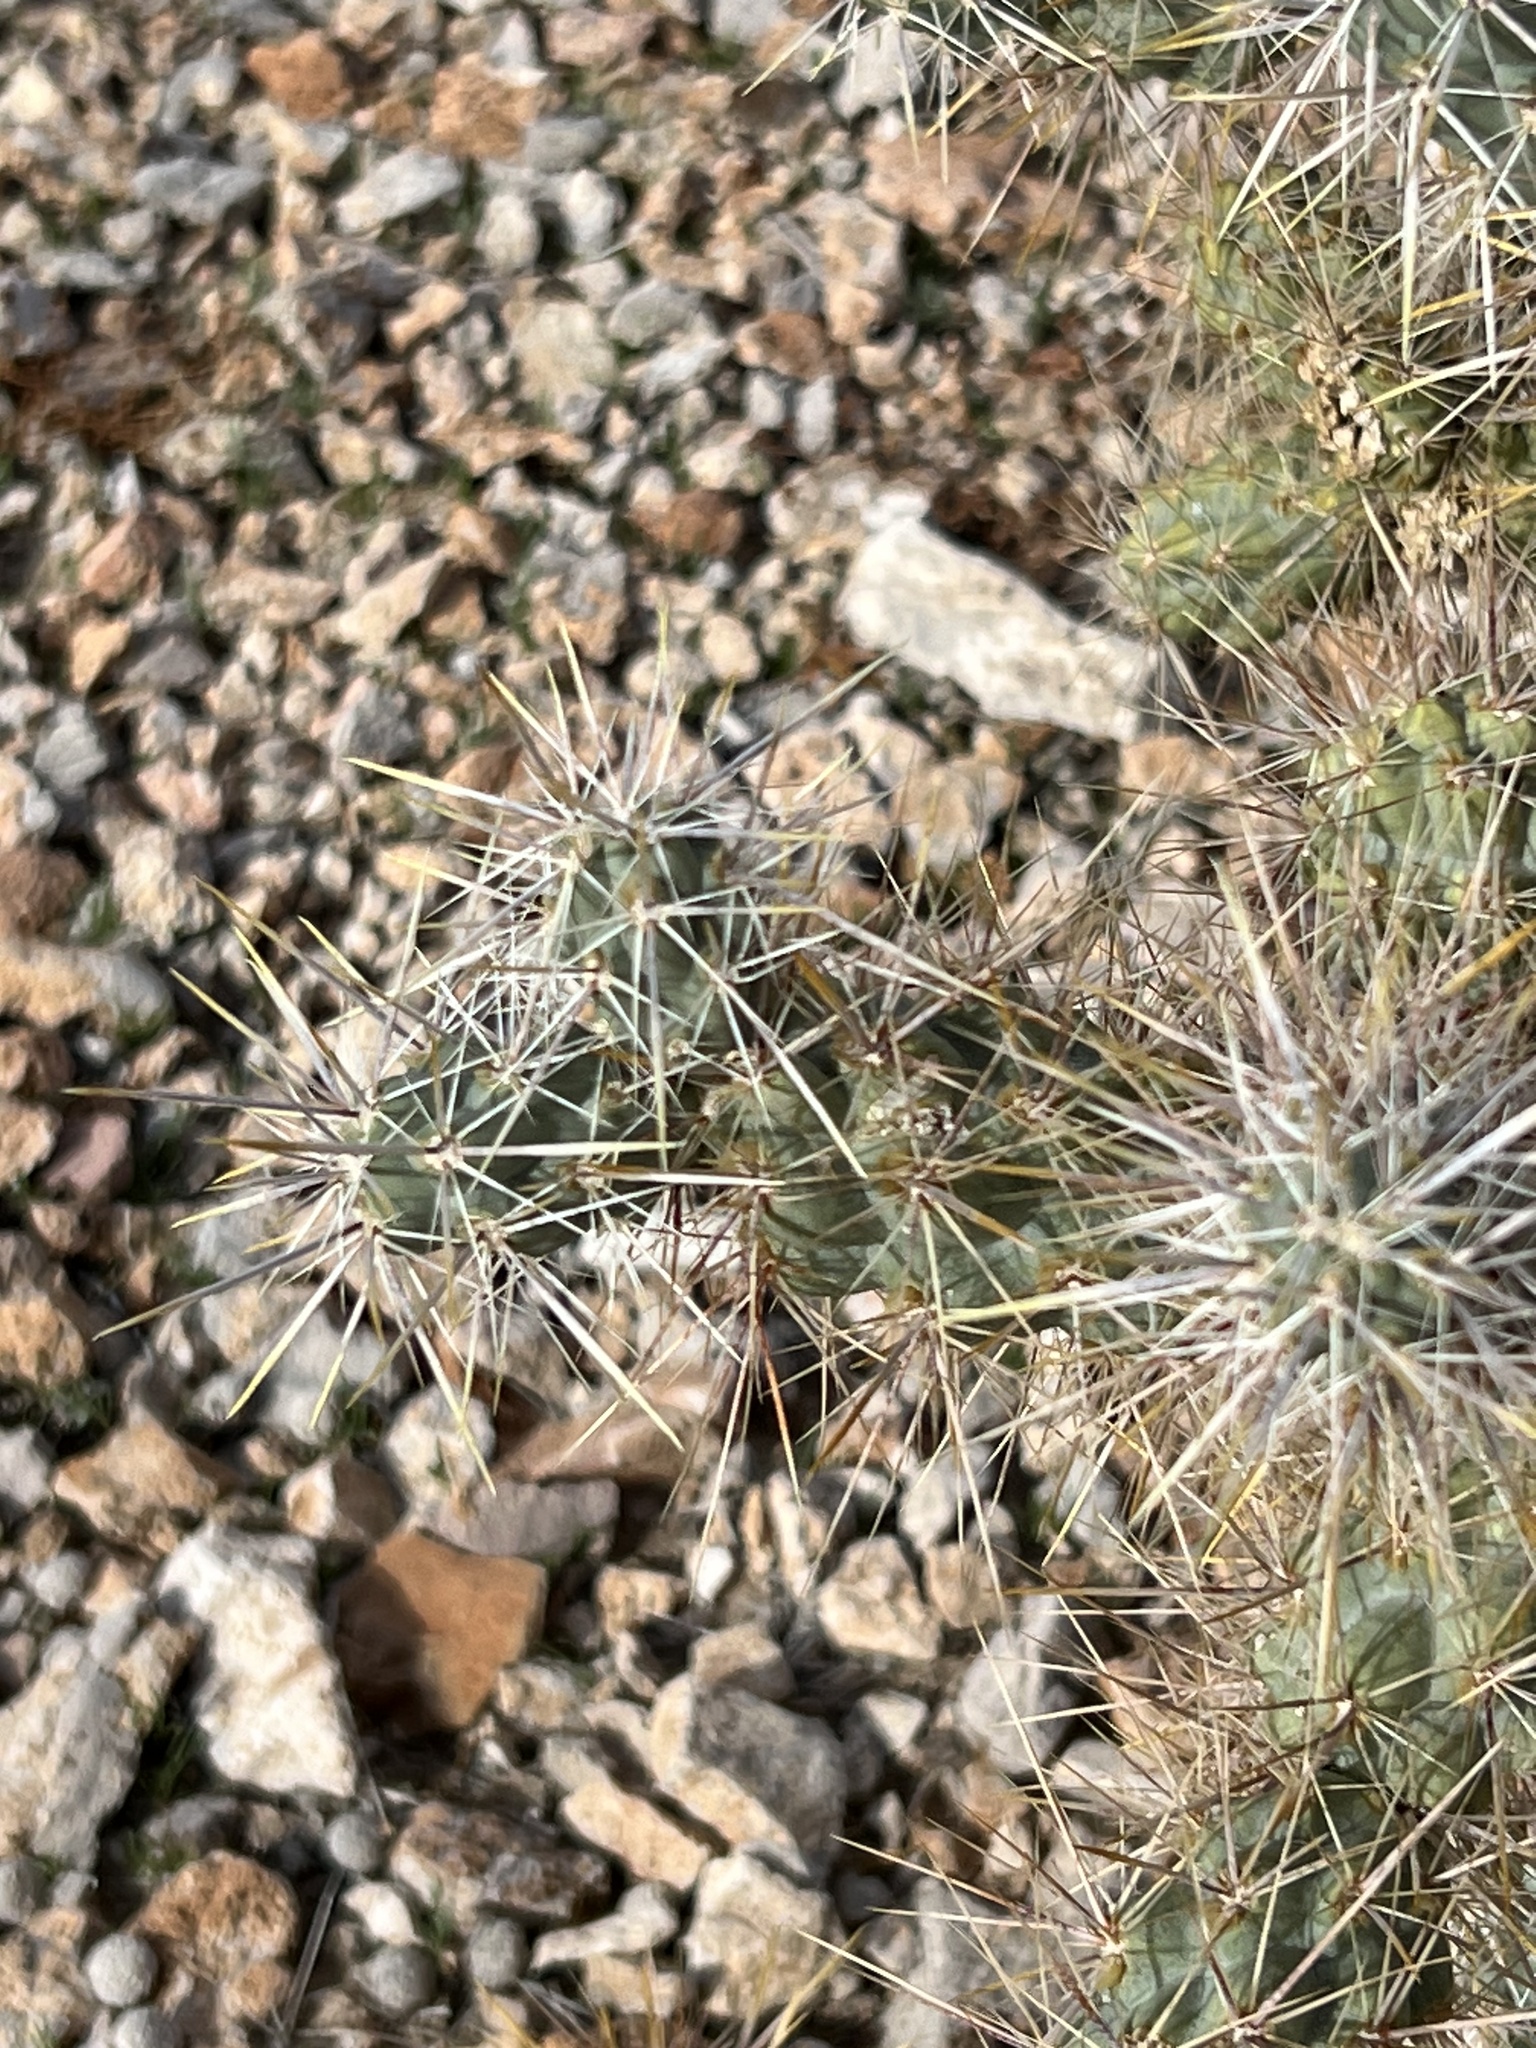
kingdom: Plantae
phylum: Tracheophyta
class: Magnoliopsida
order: Caryophyllales
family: Cactaceae
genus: Cylindropuntia
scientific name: Cylindropuntia echinocarpa
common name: Ground cholla
